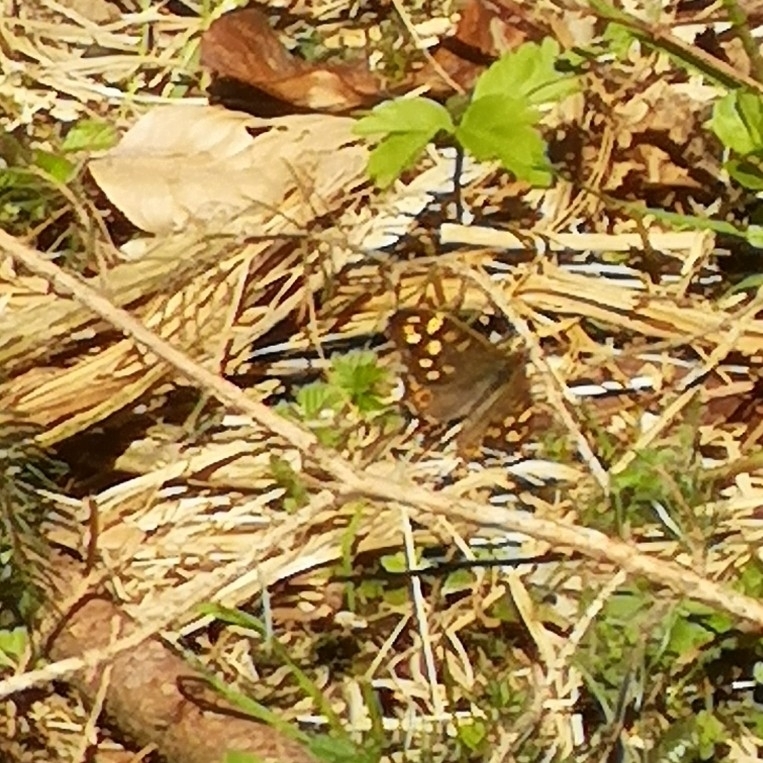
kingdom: Animalia
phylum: Arthropoda
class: Insecta
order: Lepidoptera
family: Nymphalidae
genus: Pararge
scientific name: Pararge aegeria
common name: Speckled wood
